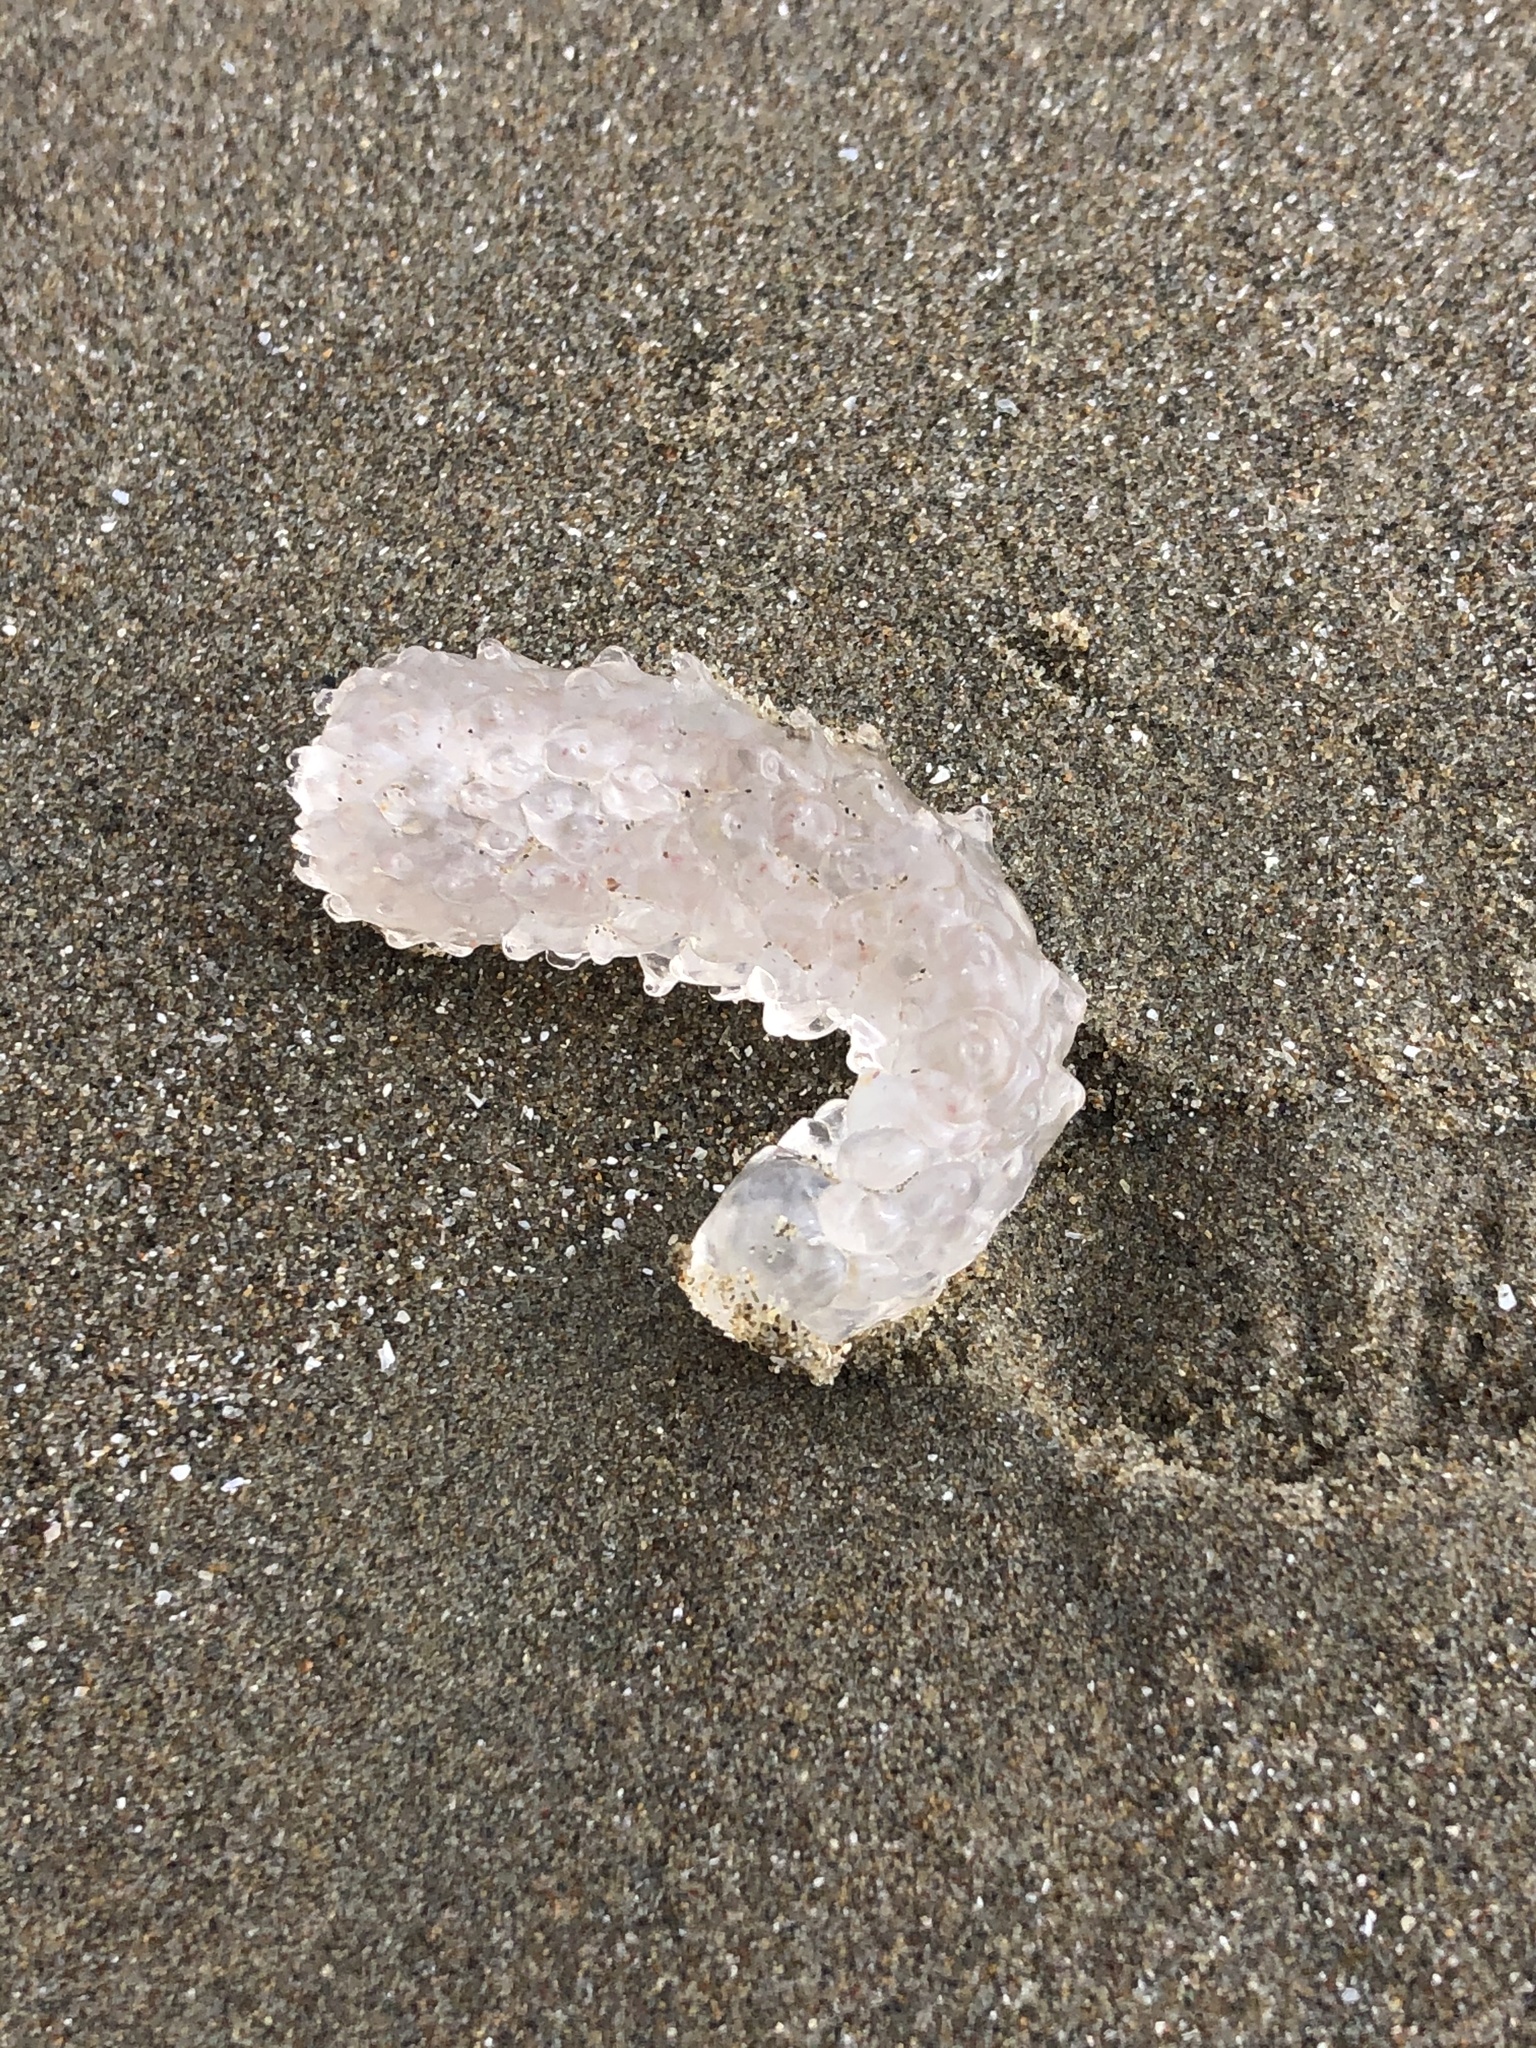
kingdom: Animalia
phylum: Chordata
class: Thaliacea
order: Pyrosomatida
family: Pyrosomatidae
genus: Pyrosoma
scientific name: Pyrosoma atlanticum
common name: Atlantic pyrosomes
